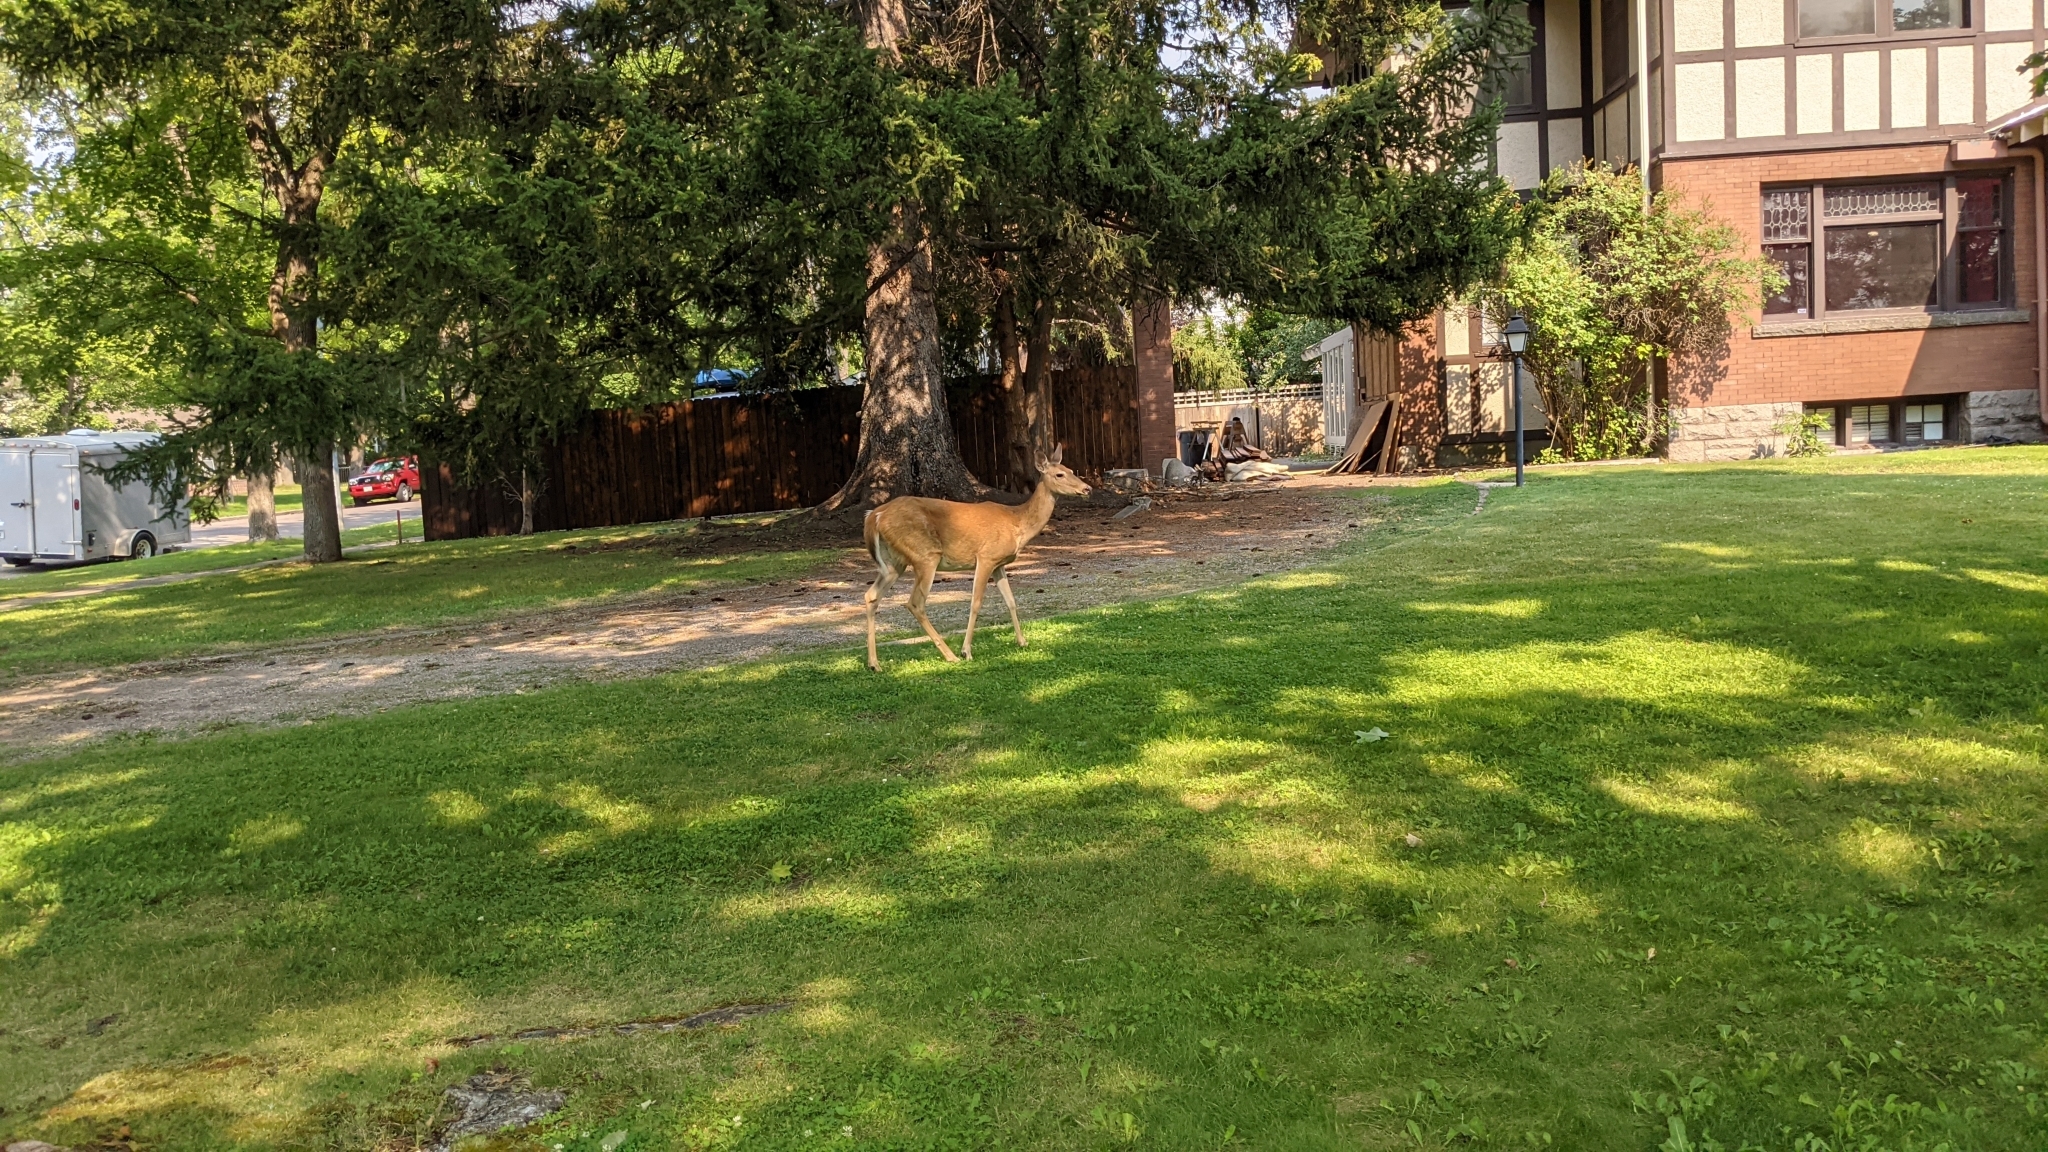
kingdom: Animalia
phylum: Chordata
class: Mammalia
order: Artiodactyla
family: Cervidae
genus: Odocoileus
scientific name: Odocoileus virginianus
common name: White-tailed deer
